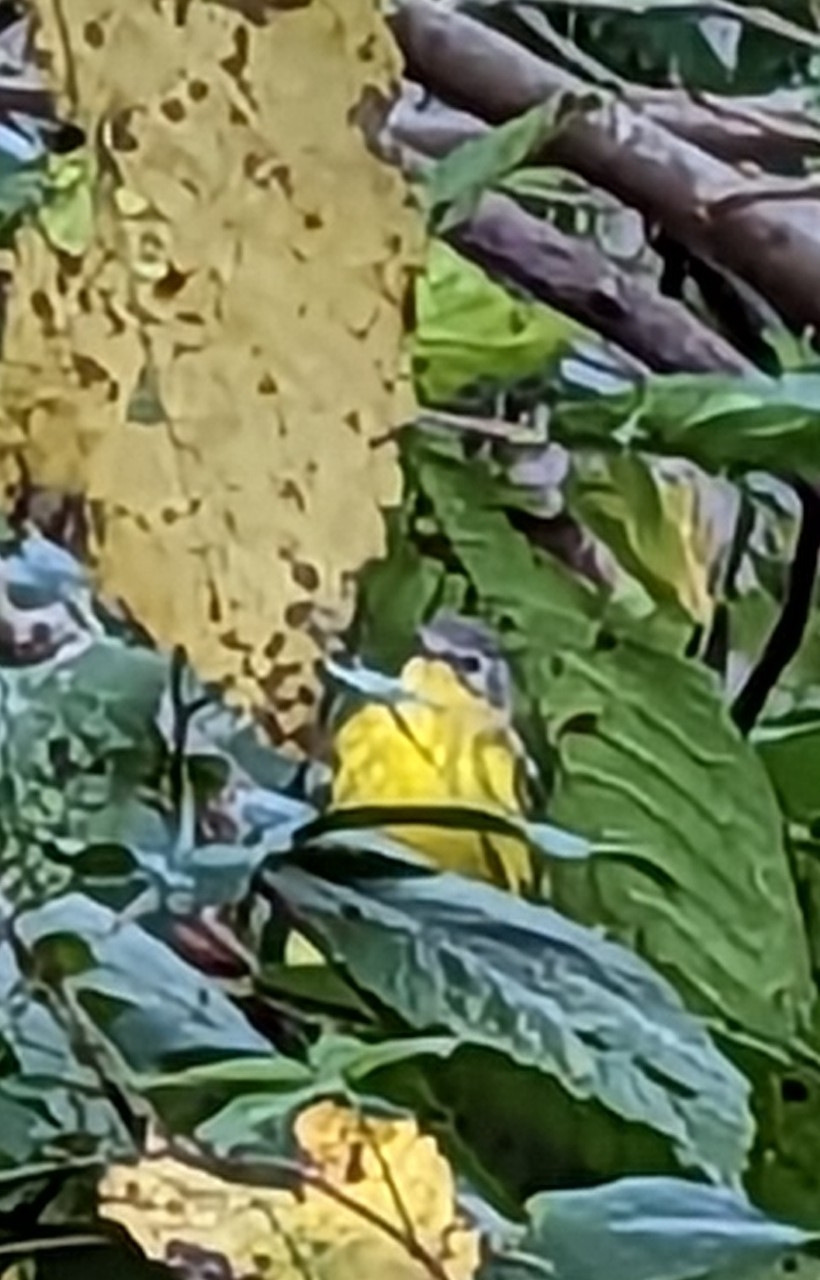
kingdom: Animalia
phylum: Chordata
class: Aves
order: Passeriformes
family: Parulidae
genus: Setophaga
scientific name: Setophaga magnolia
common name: Magnolia warbler
